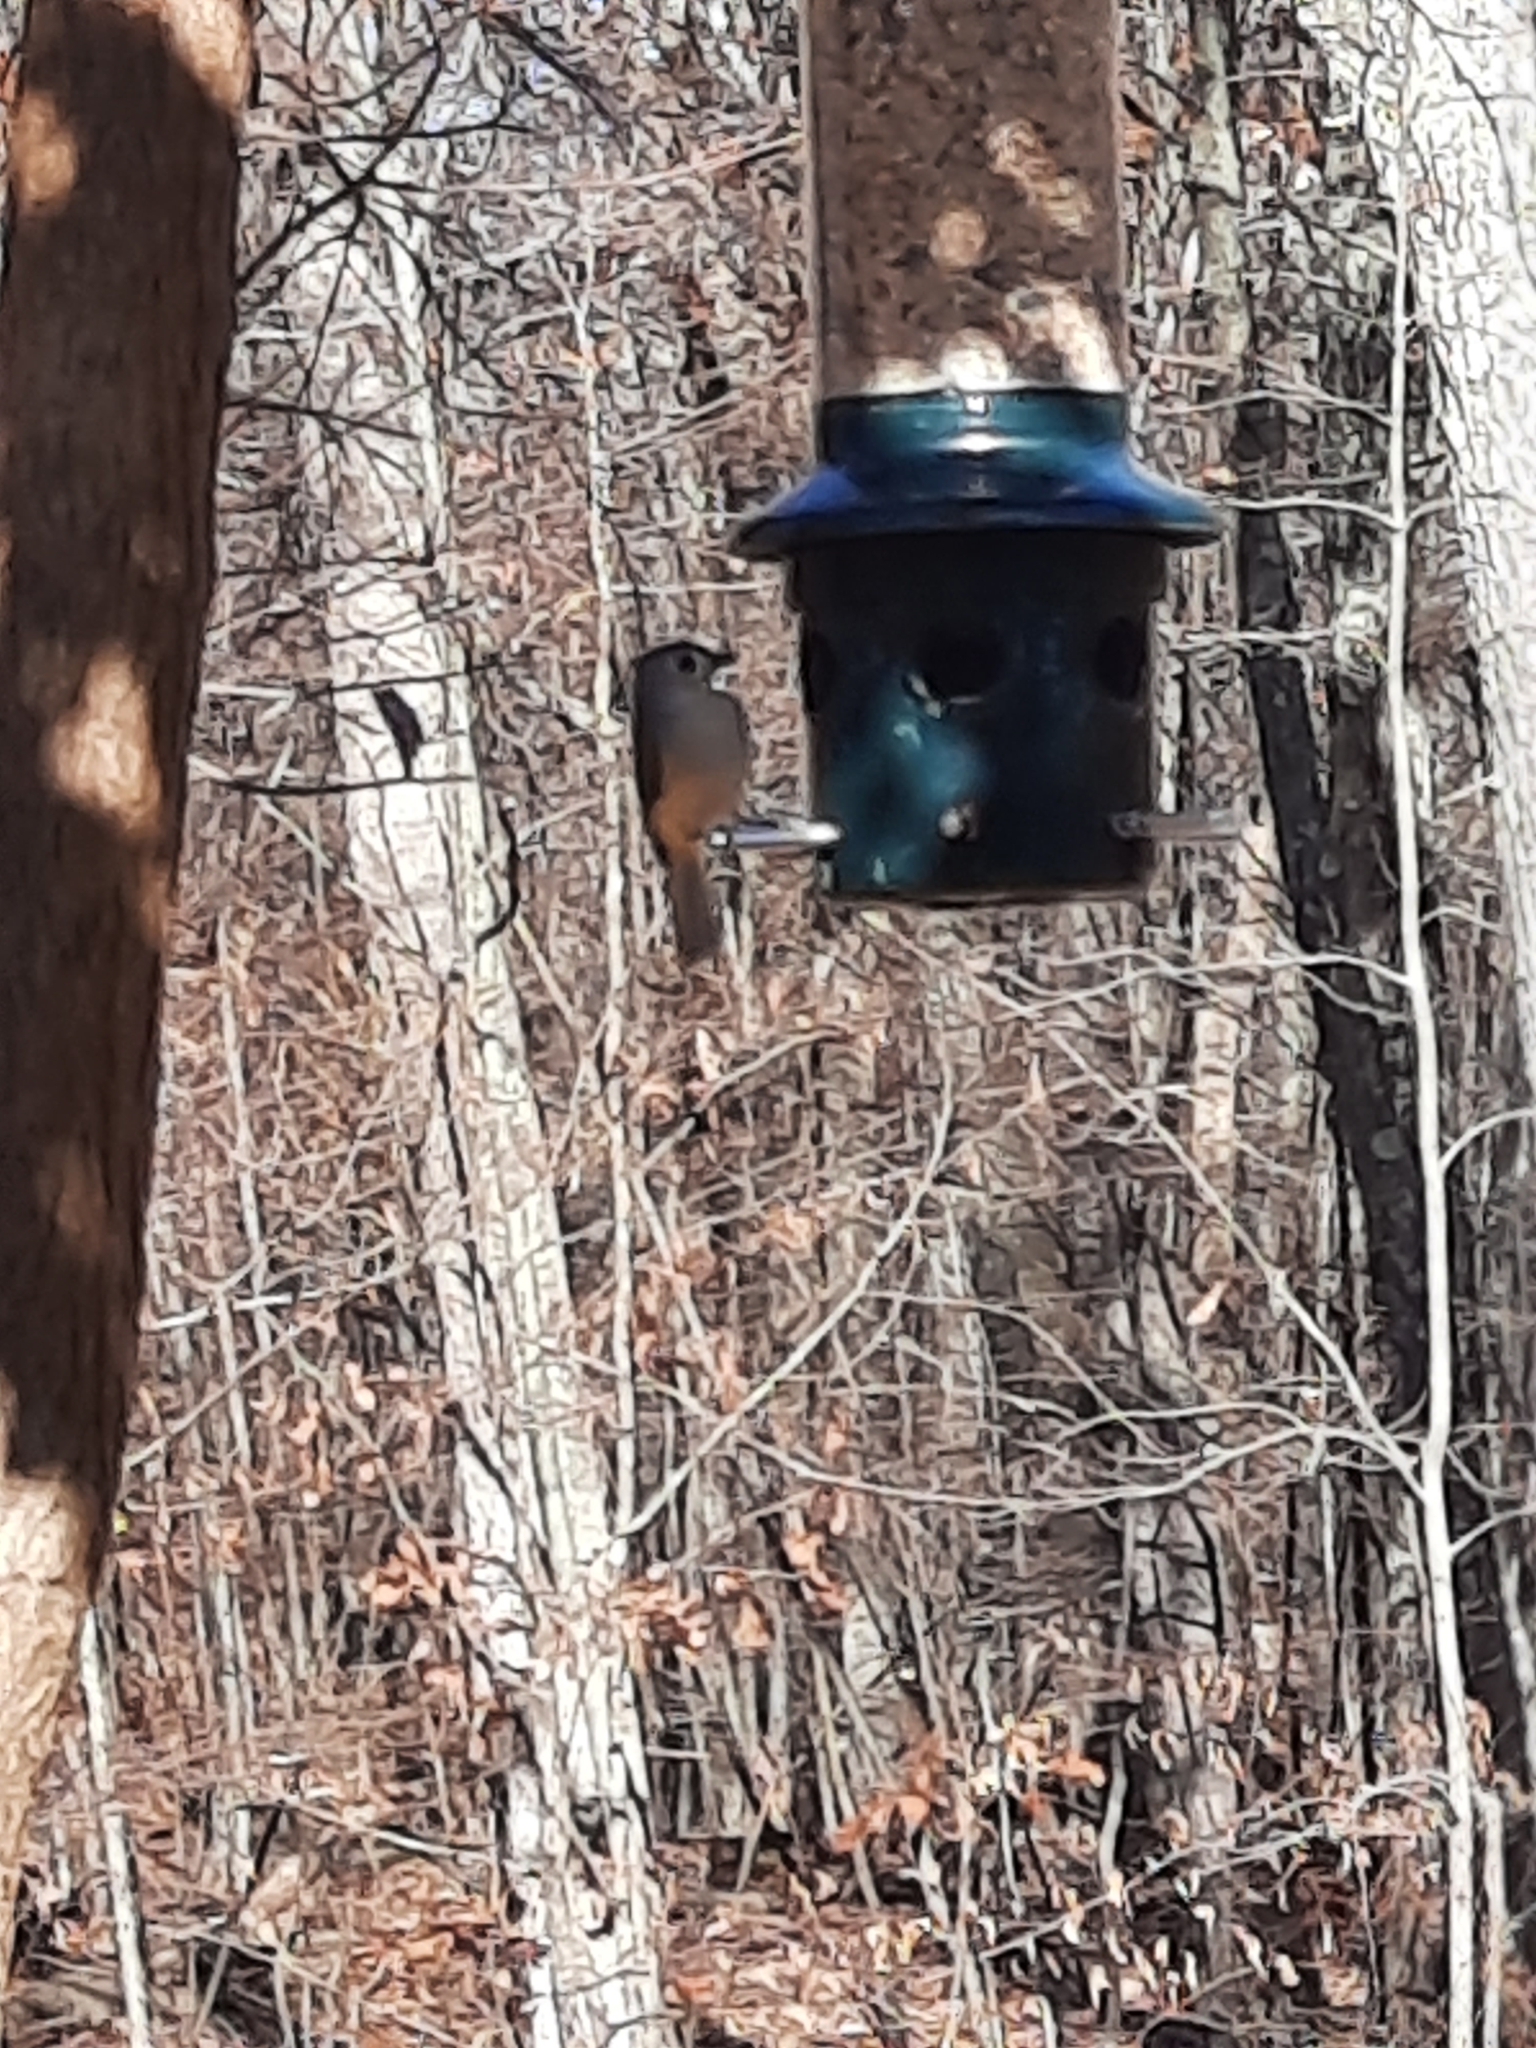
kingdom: Animalia
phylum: Chordata
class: Aves
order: Passeriformes
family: Paridae
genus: Baeolophus
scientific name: Baeolophus bicolor
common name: Tufted titmouse
